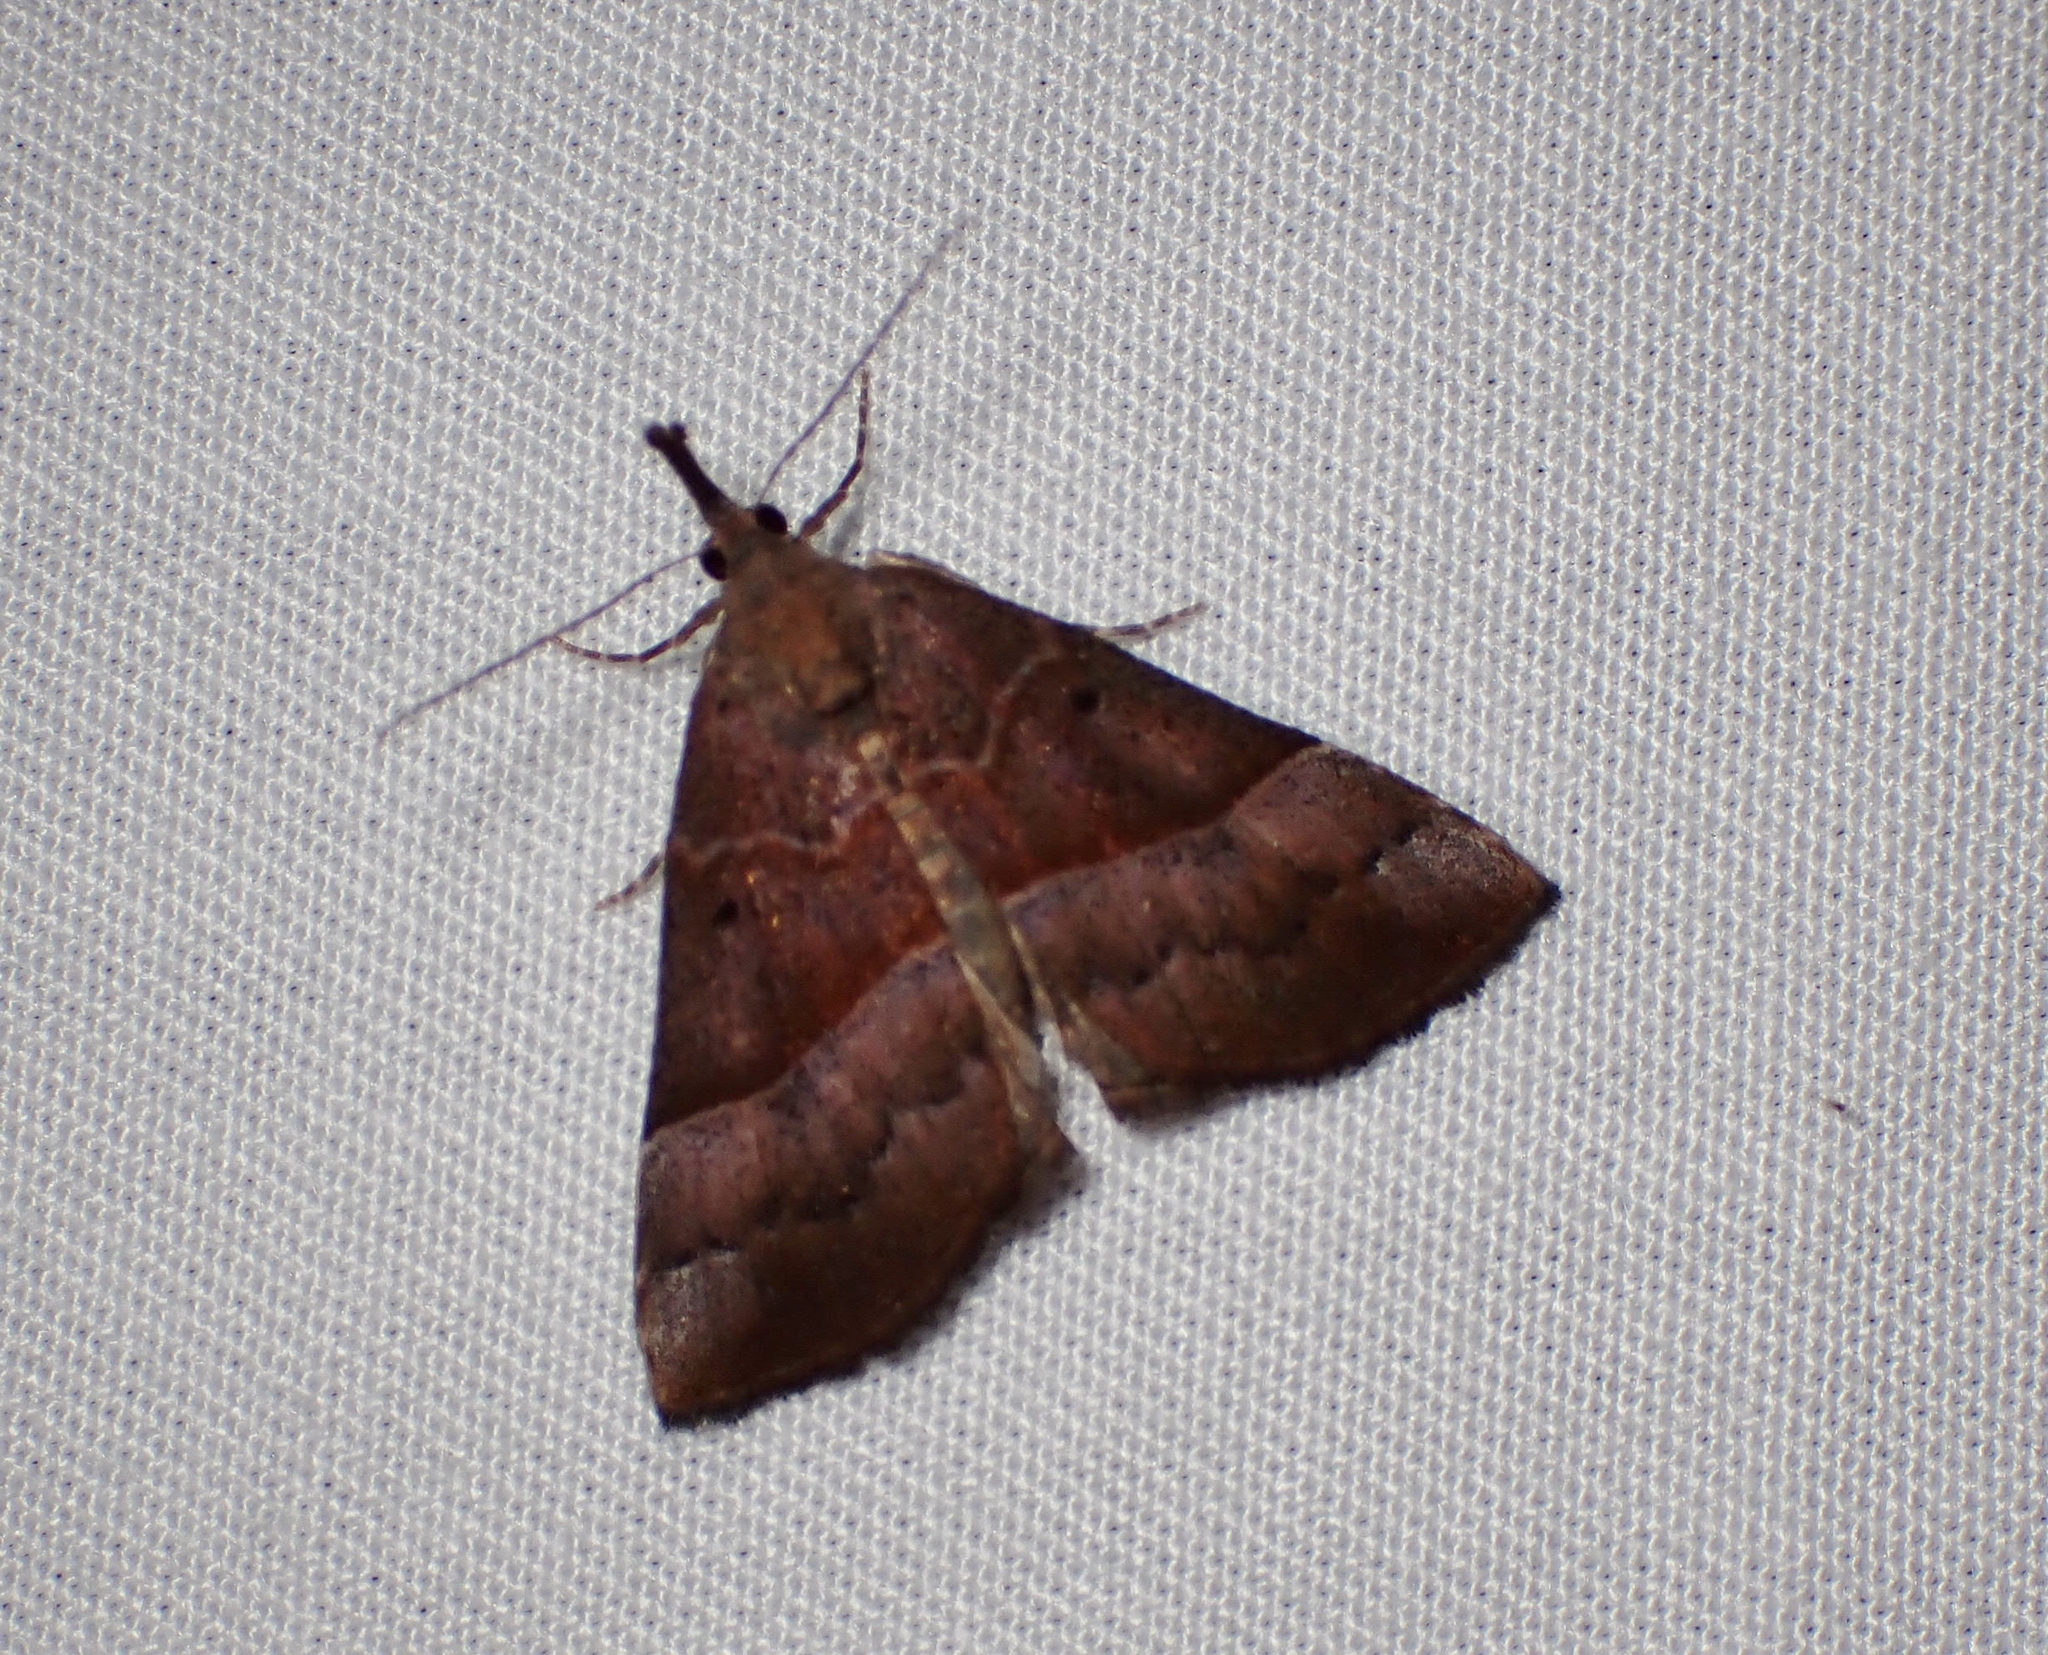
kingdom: Animalia
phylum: Arthropoda
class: Insecta
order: Lepidoptera
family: Erebidae
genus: Hypena
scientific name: Hypena eductalis
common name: Red-footed snout
